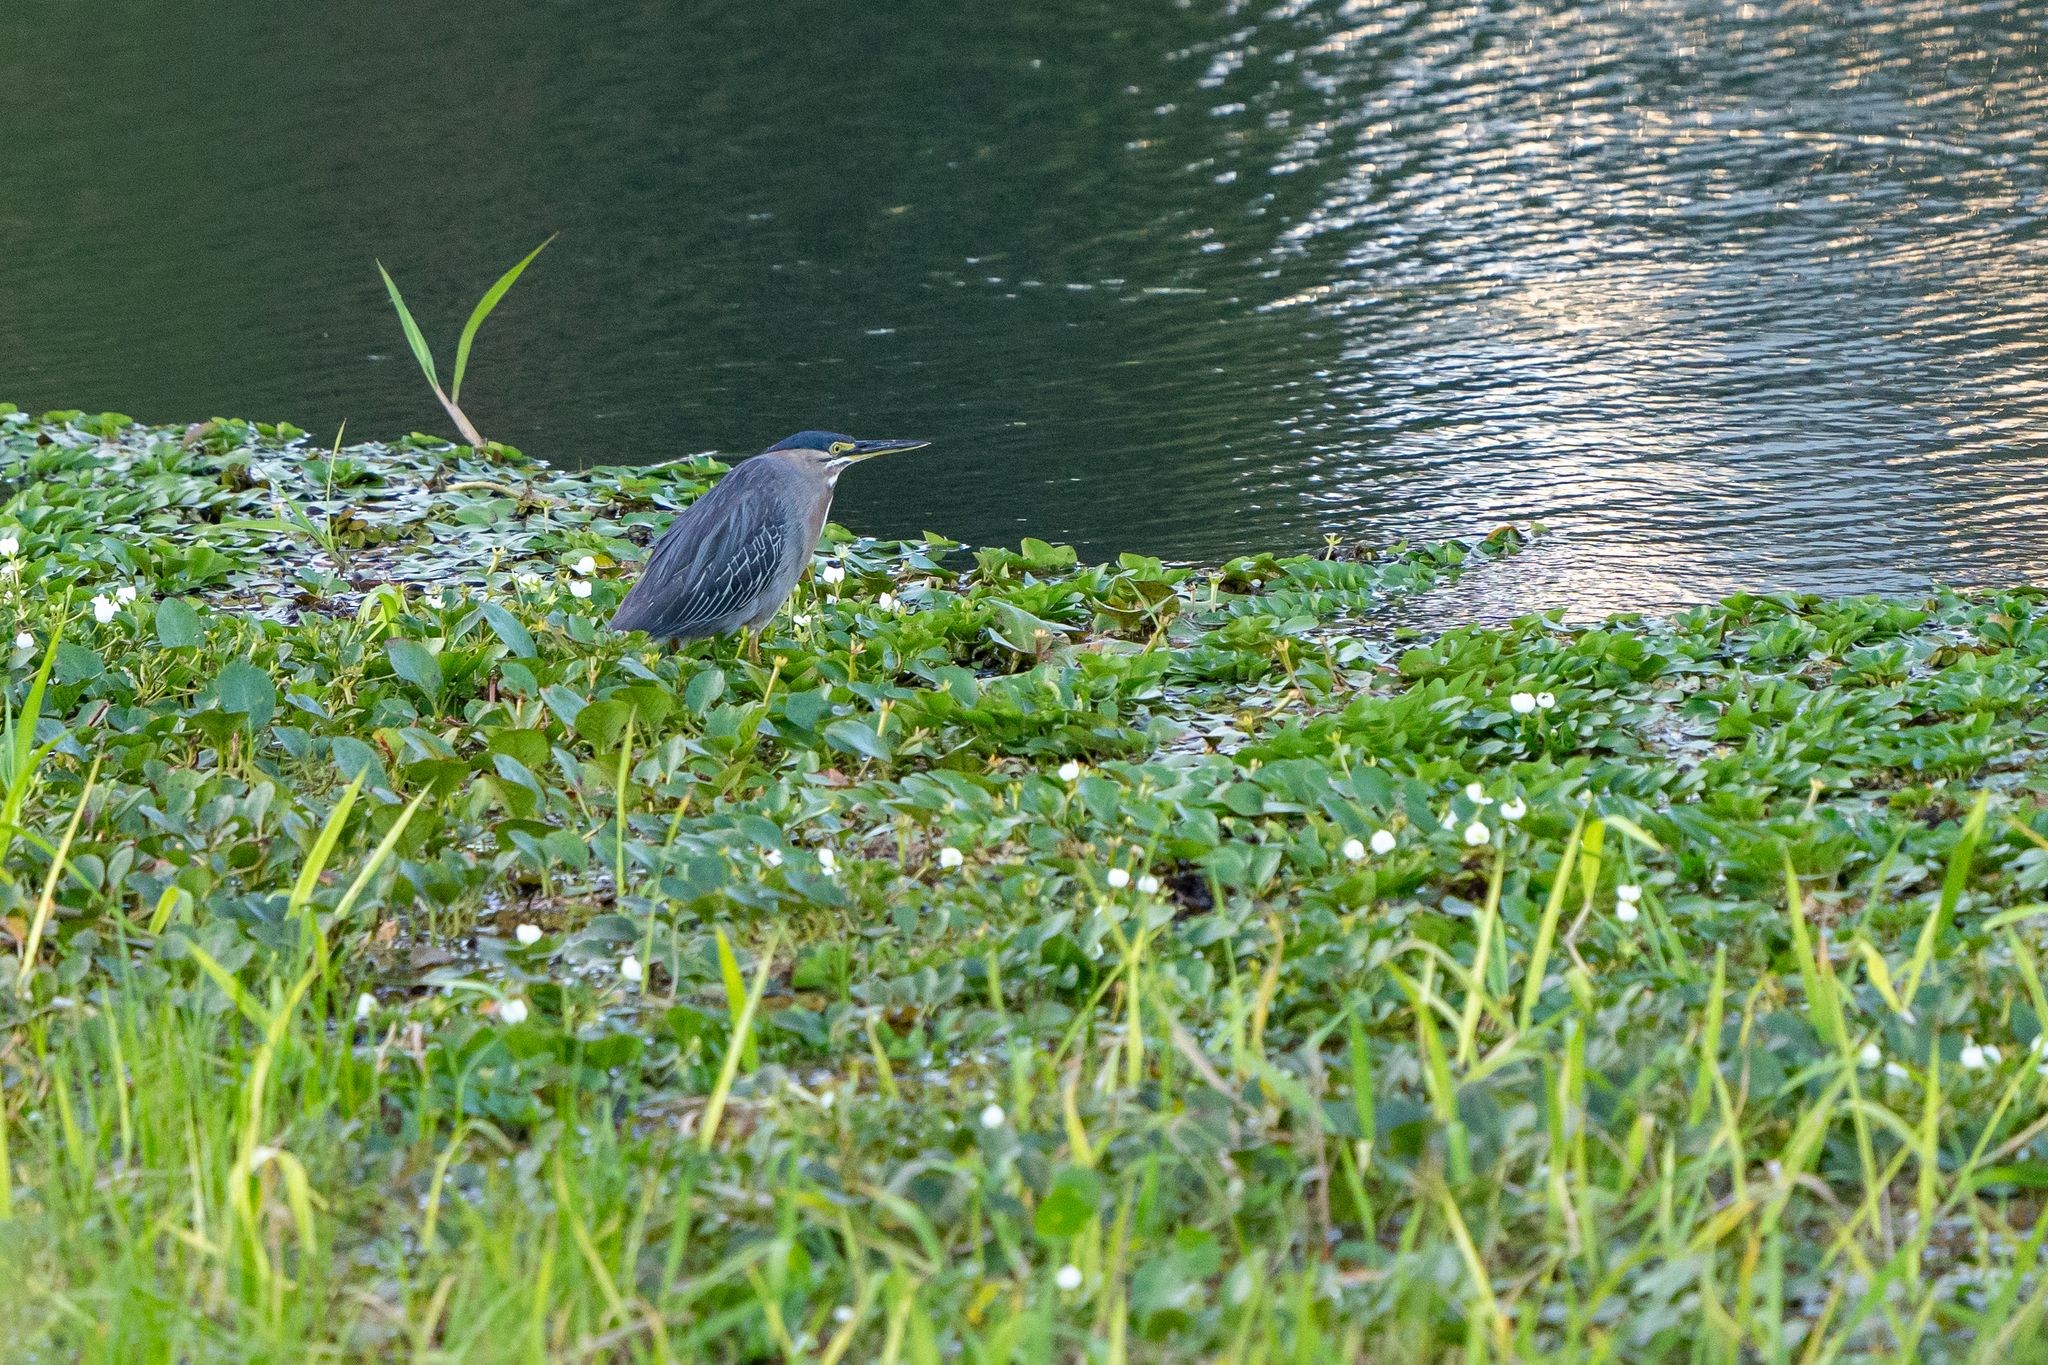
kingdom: Animalia
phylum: Chordata
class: Aves
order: Pelecaniformes
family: Ardeidae
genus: Butorides
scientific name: Butorides striata
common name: Striated heron
